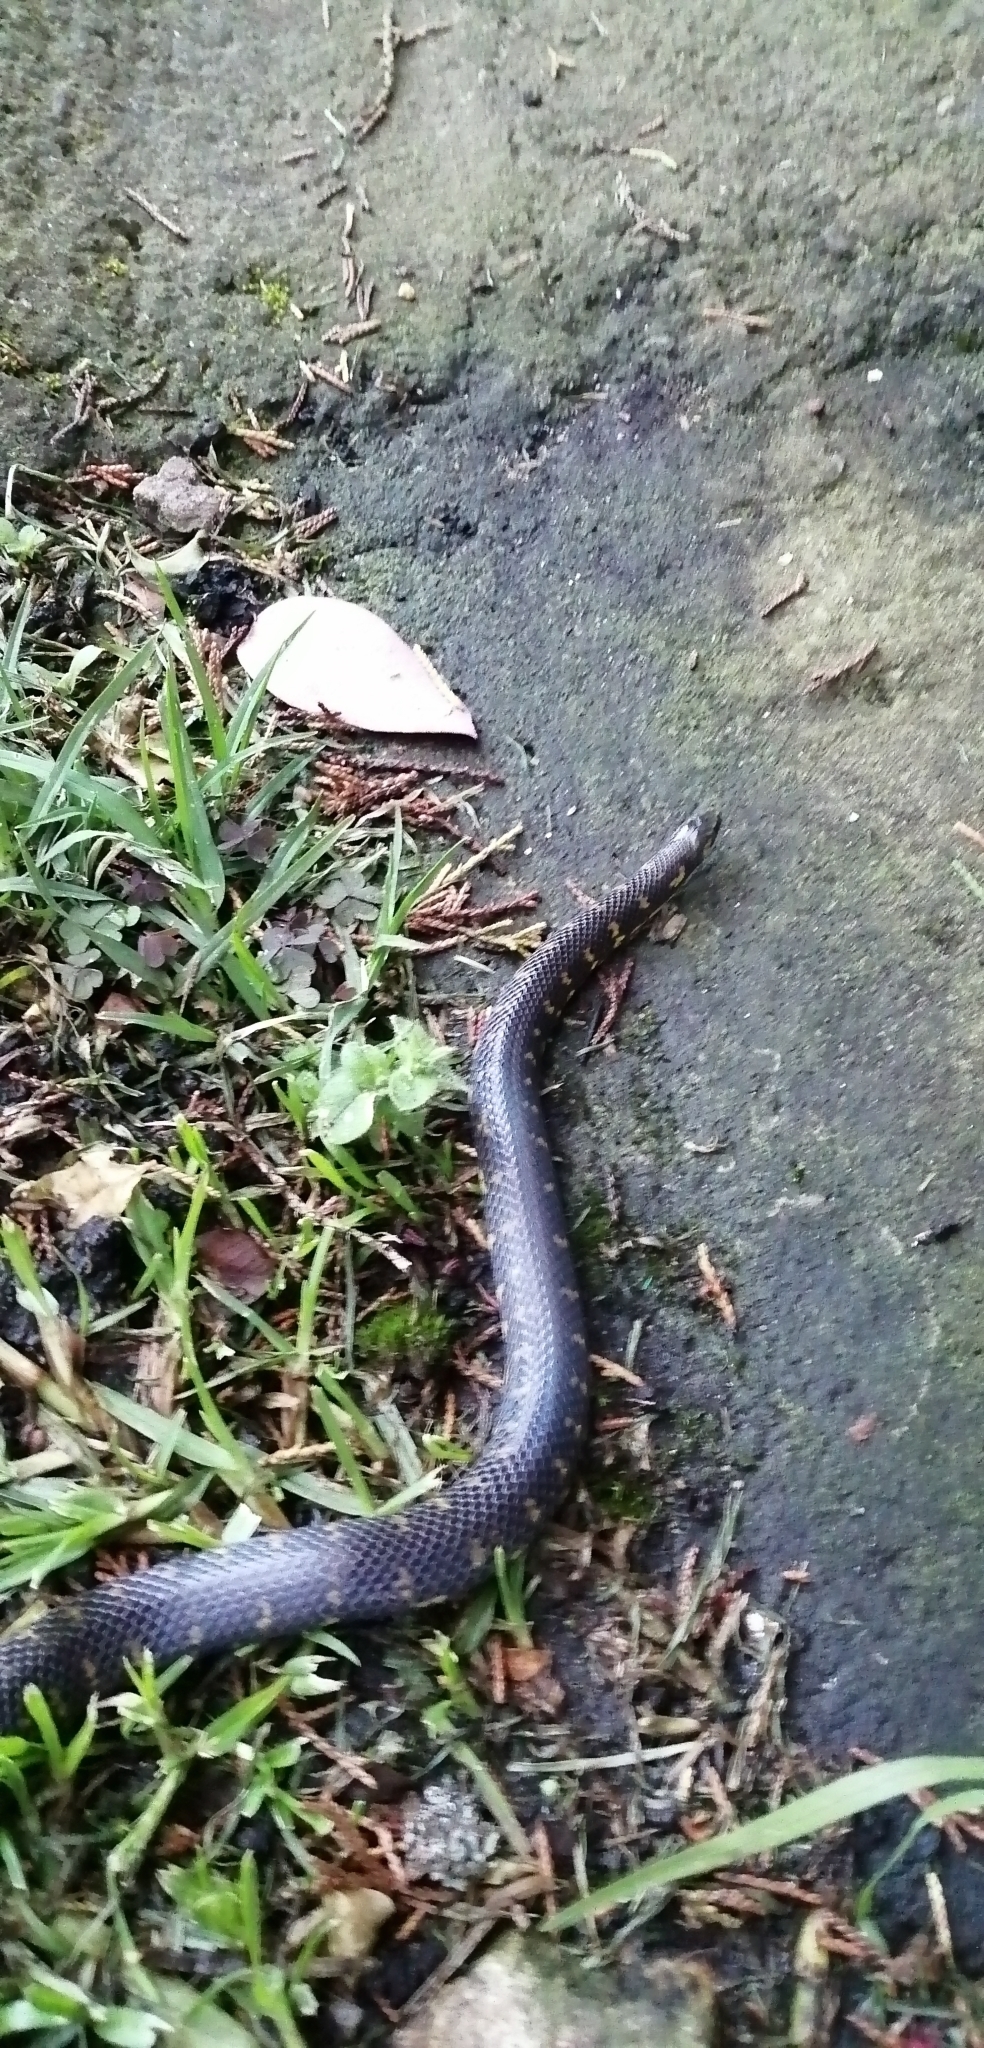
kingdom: Animalia
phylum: Chordata
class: Squamata
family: Colubridae
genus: Atractus
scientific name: Atractus crassicaudatus
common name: Thickhead ground snake
